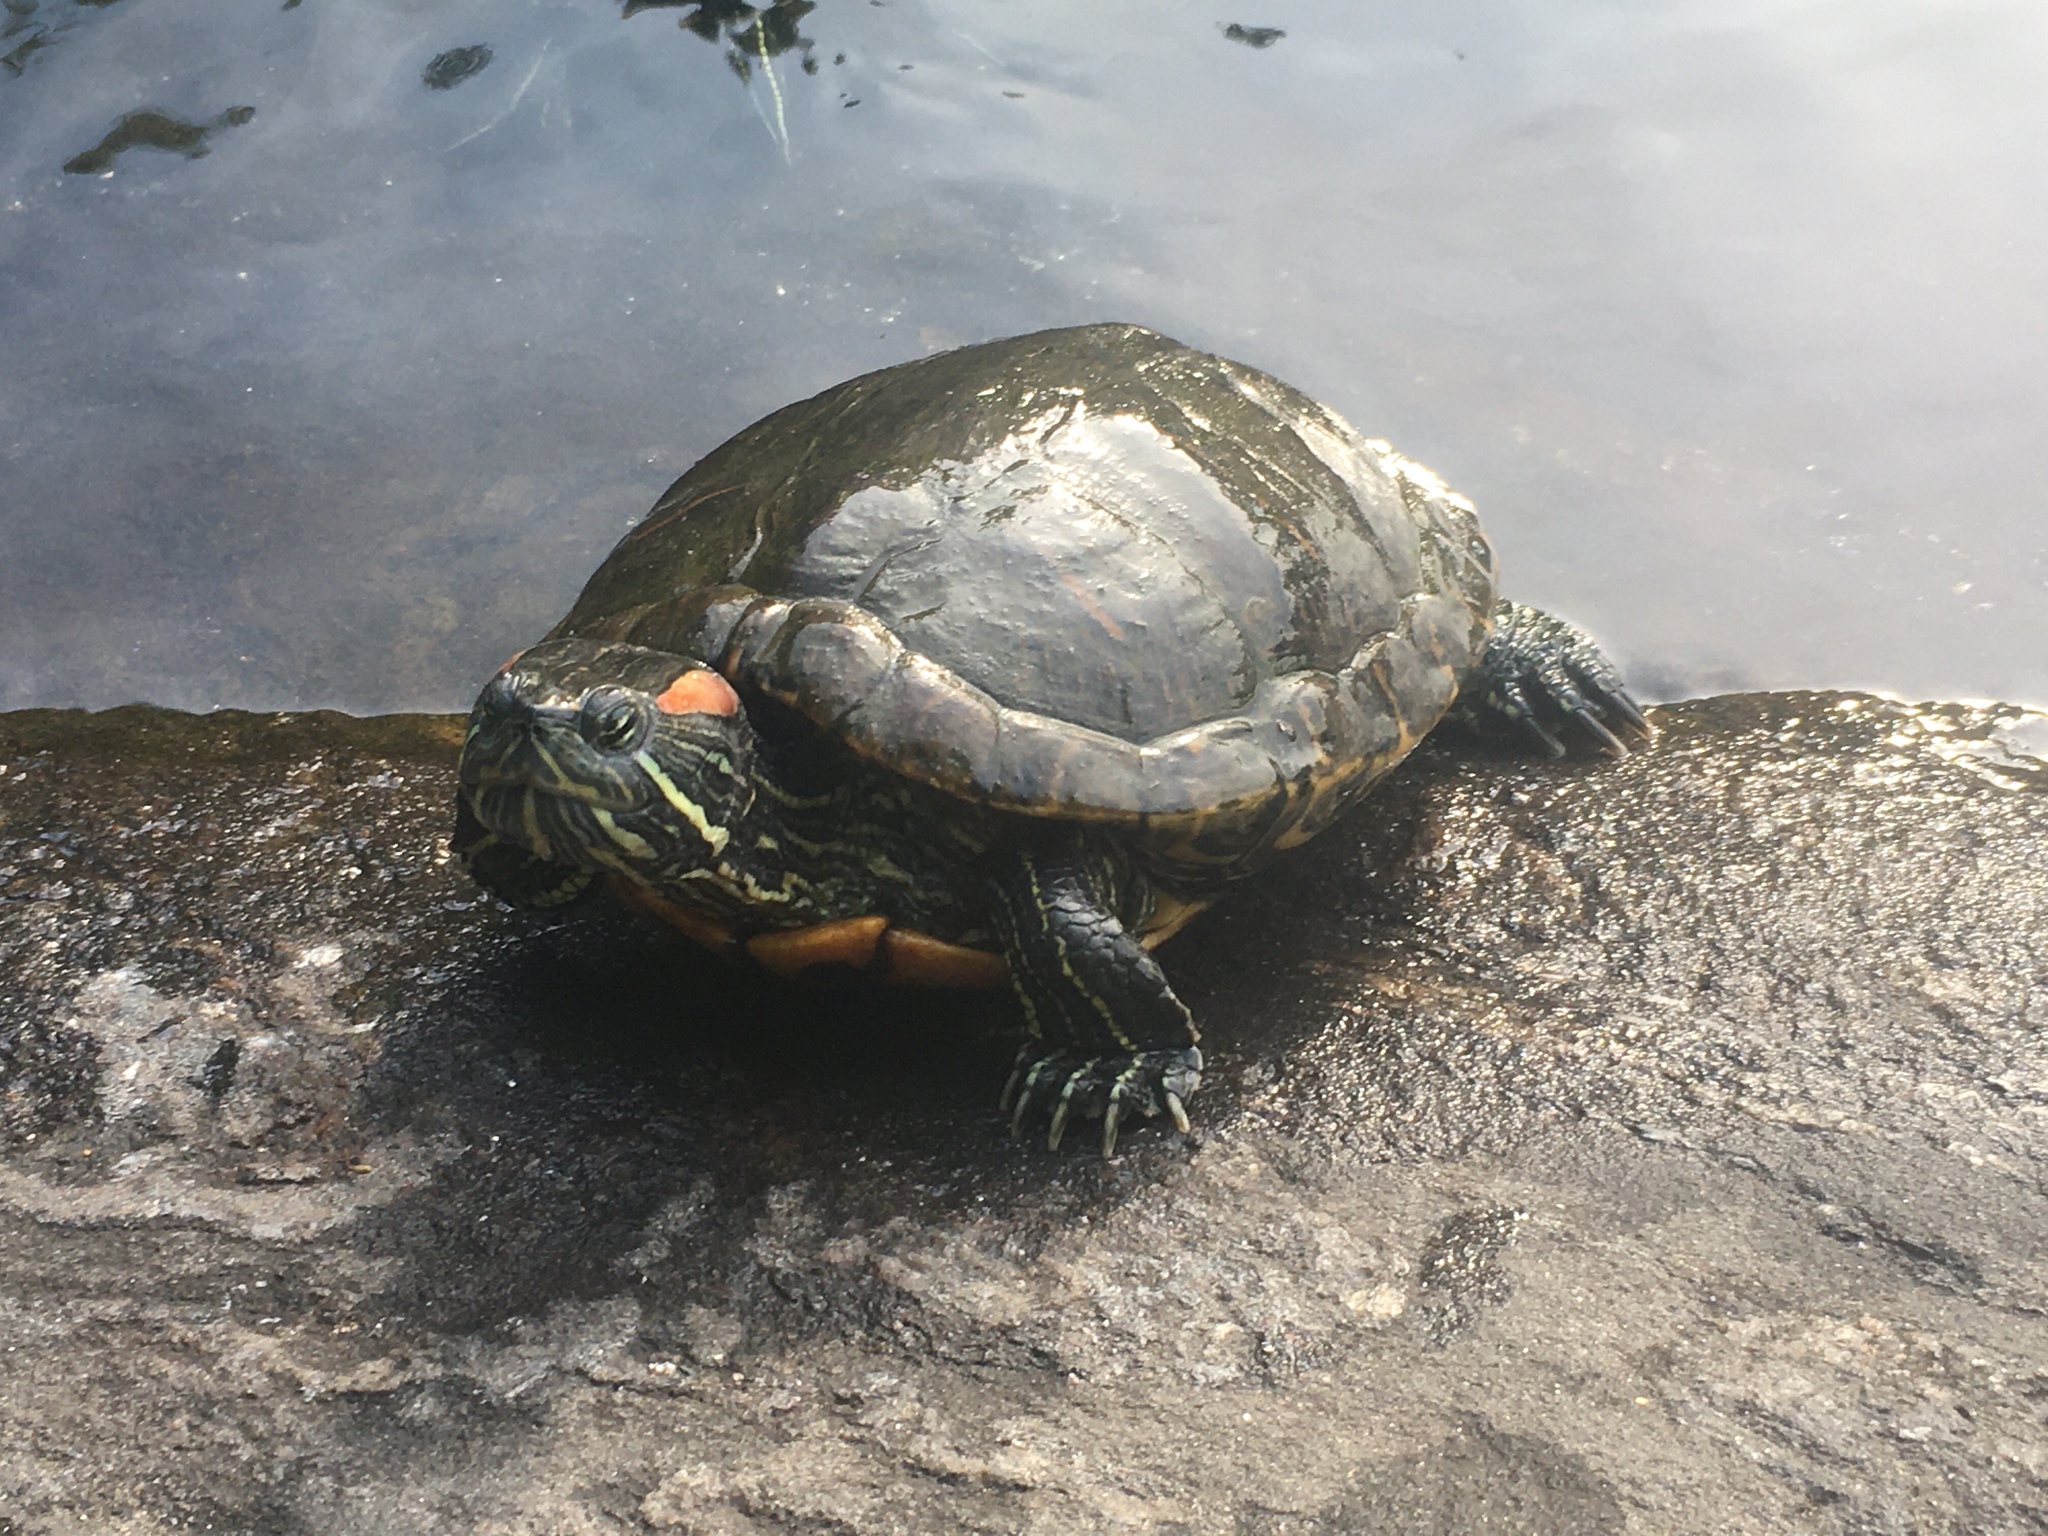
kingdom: Animalia
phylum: Chordata
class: Testudines
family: Emydidae
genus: Trachemys
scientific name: Trachemys scripta
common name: Slider
